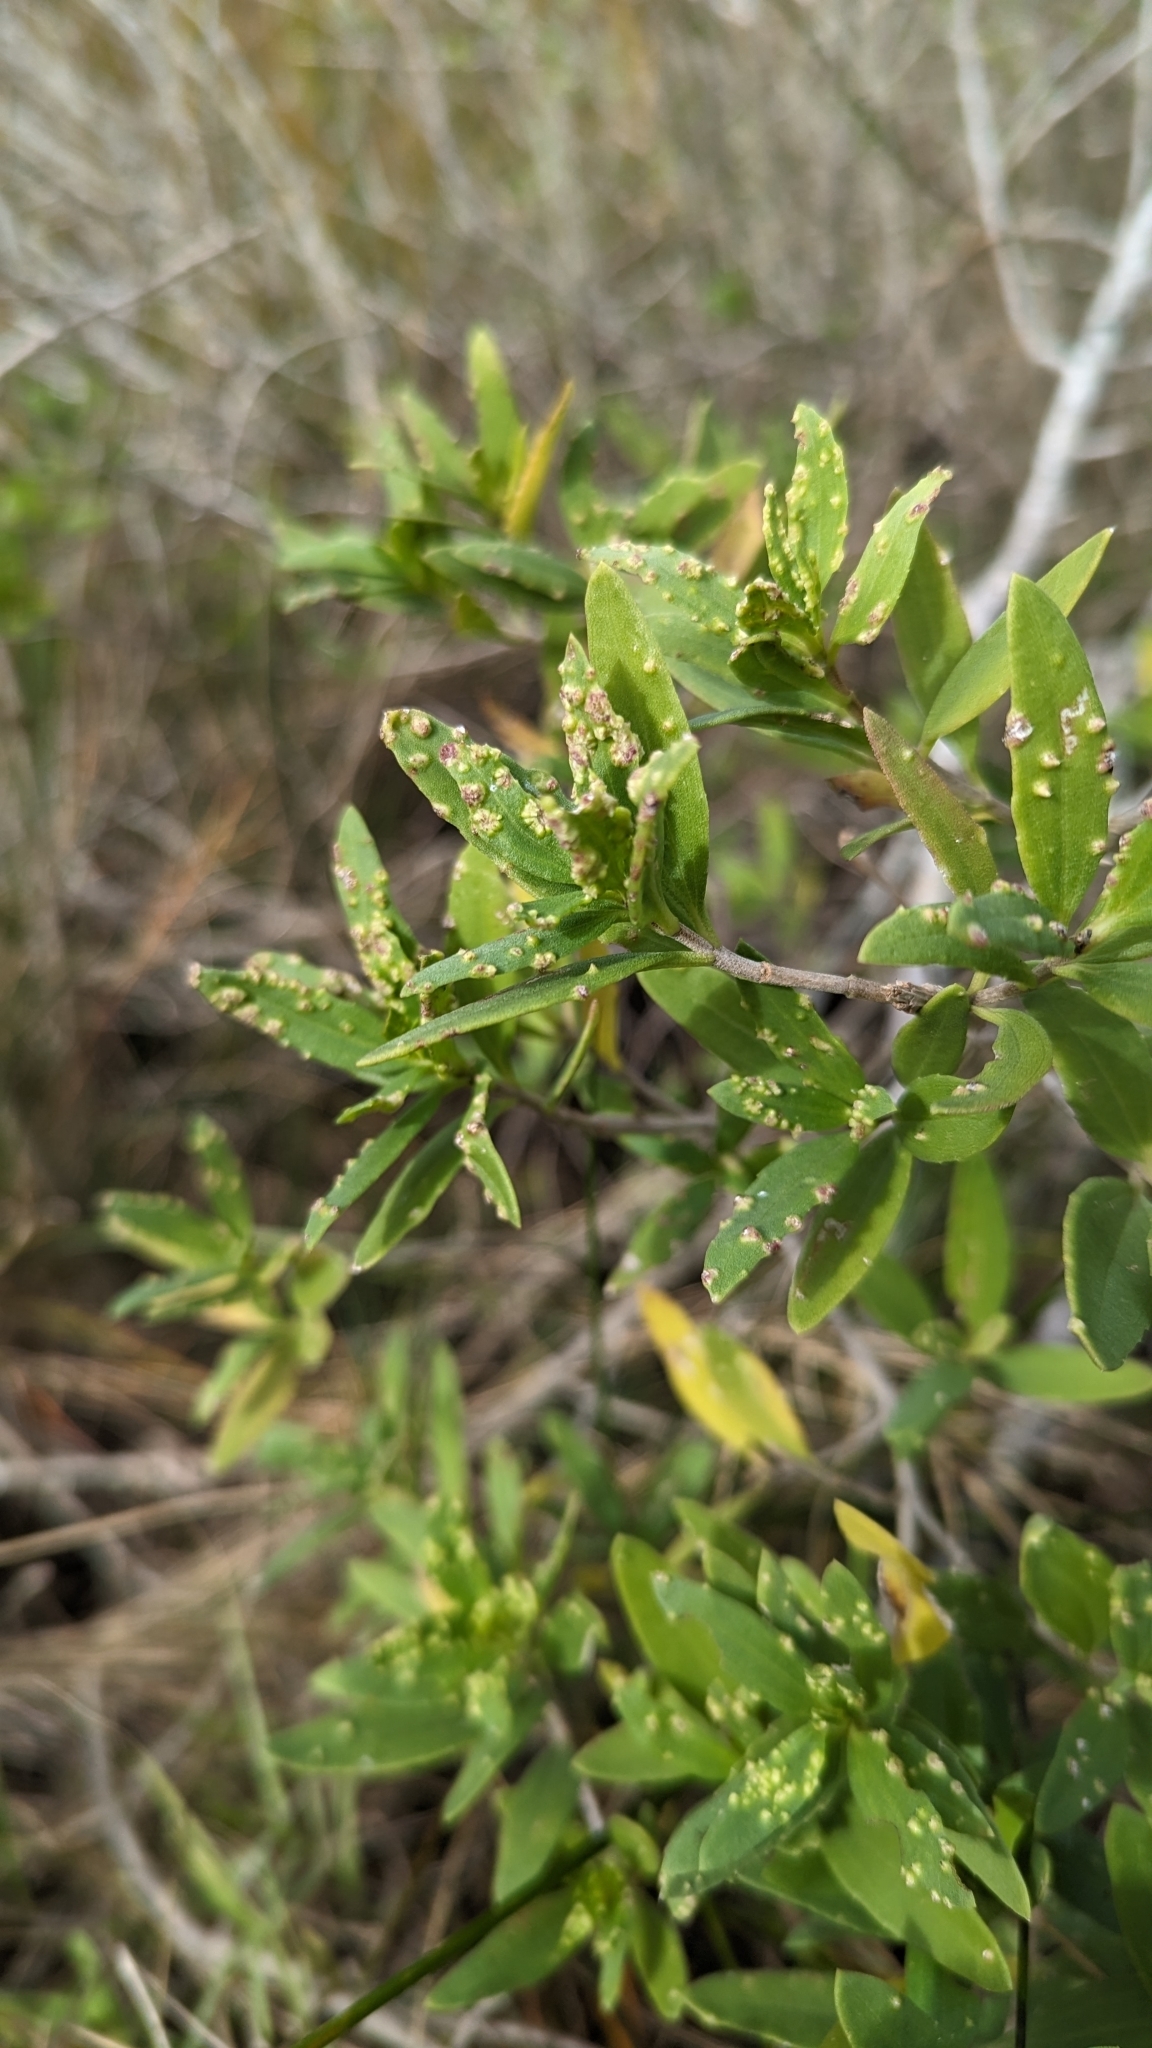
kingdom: Plantae
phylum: Tracheophyta
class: Magnoliopsida
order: Asterales
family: Asteraceae
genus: Iva
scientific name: Iva frutescens
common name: Big-leaved marsh-elder
